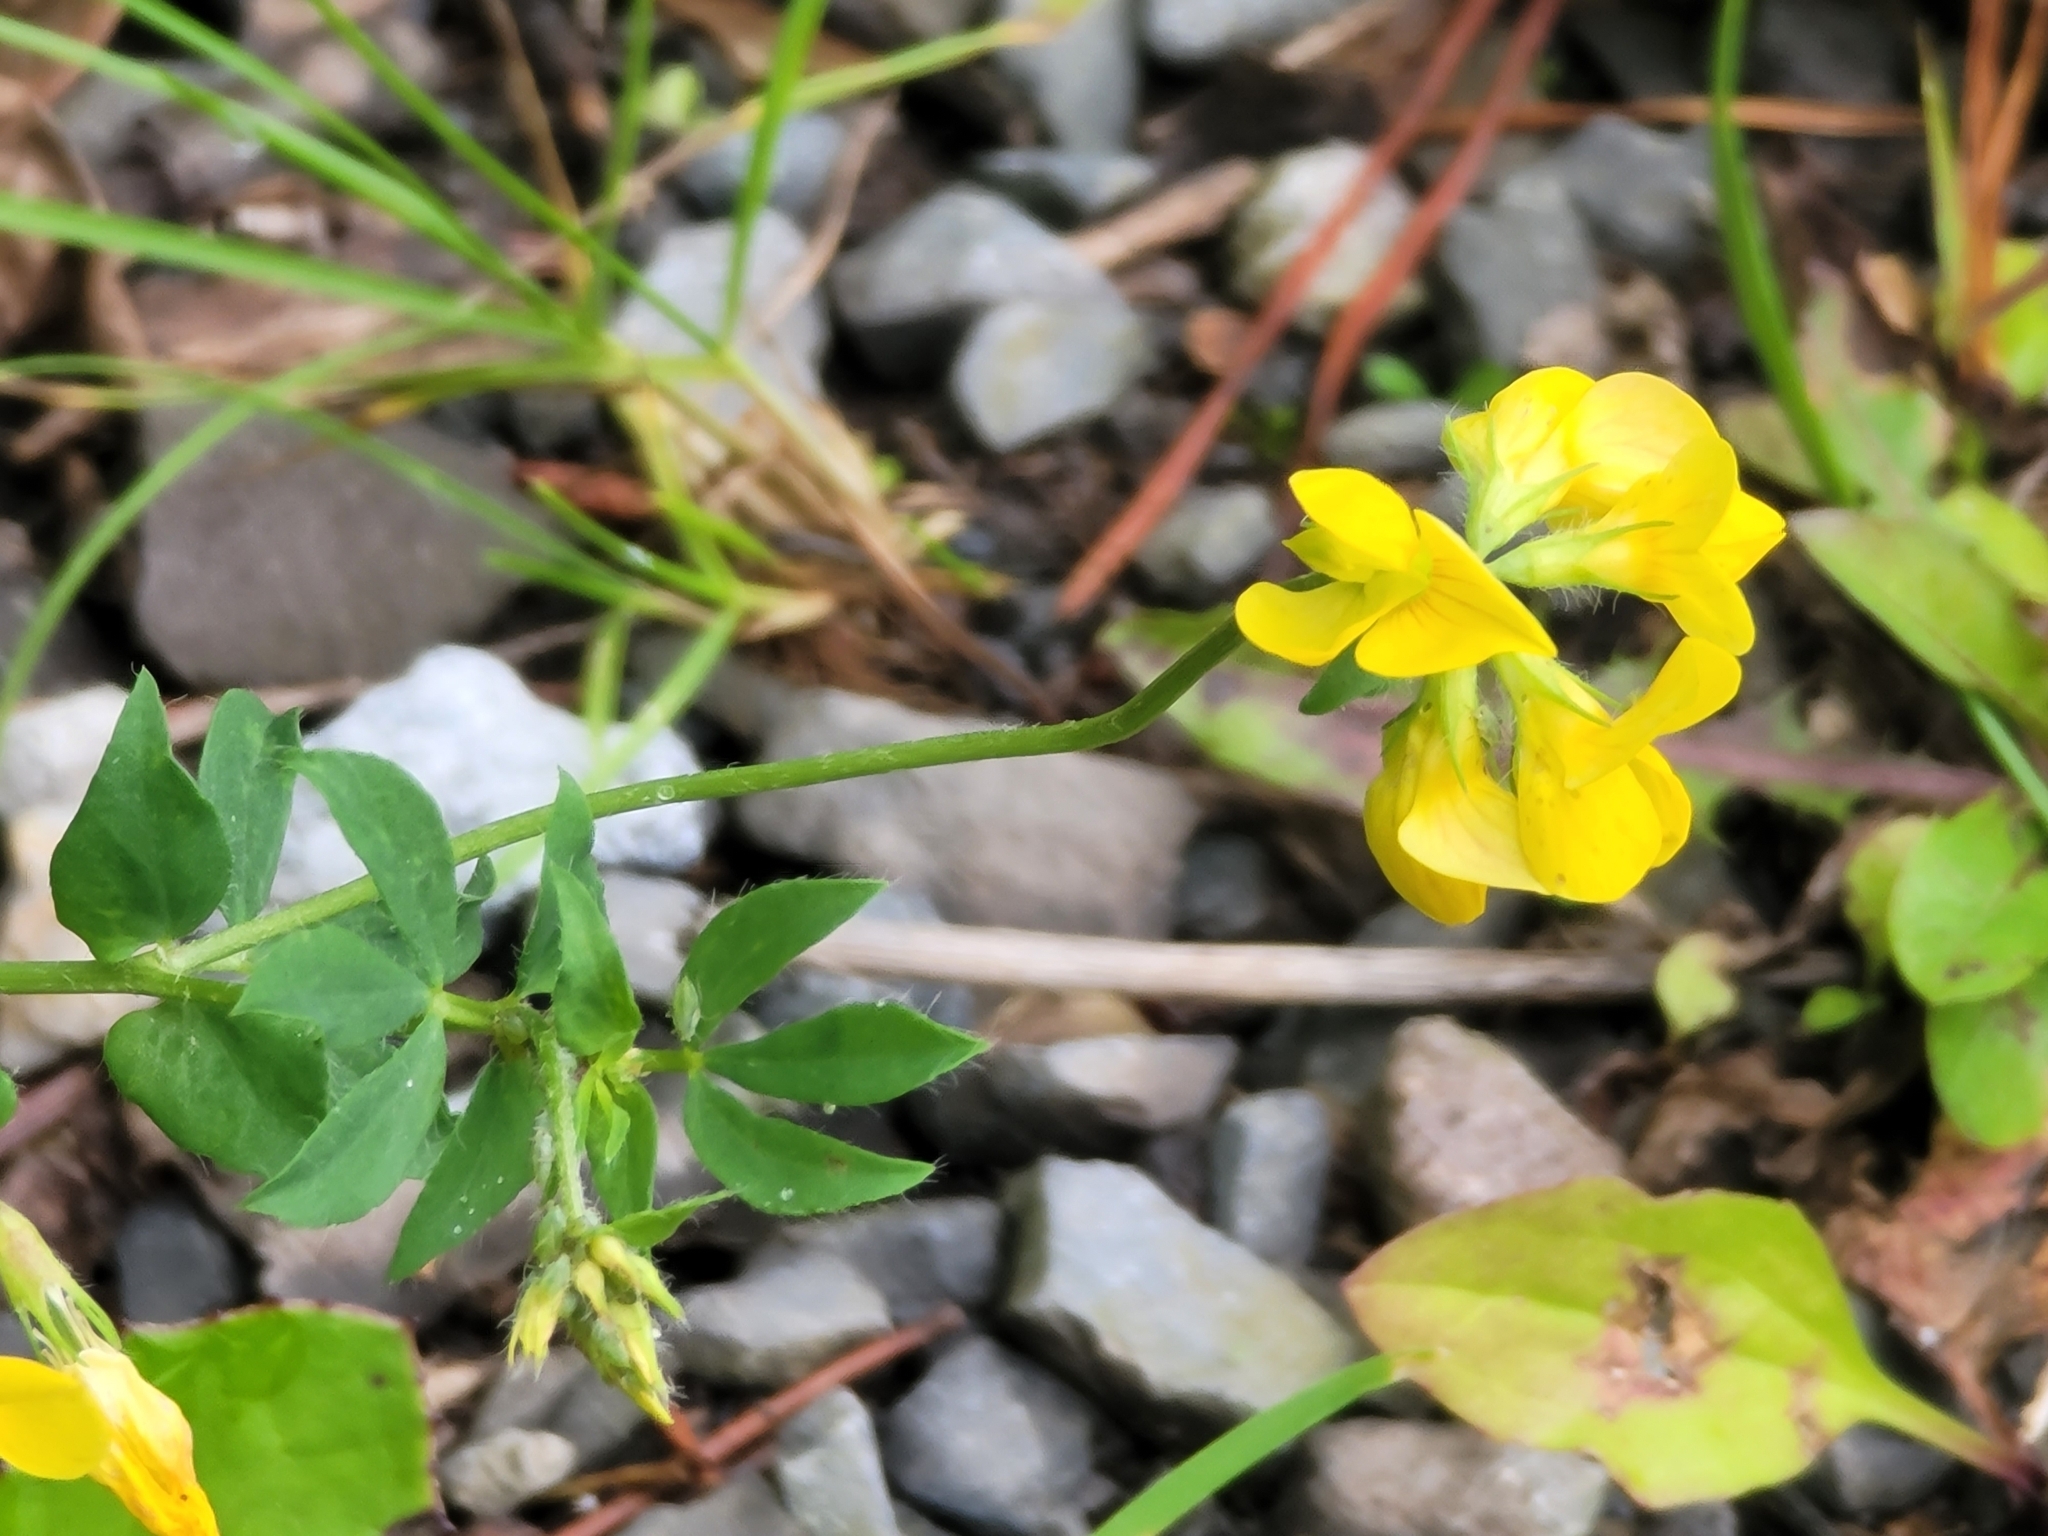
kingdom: Plantae
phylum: Tracheophyta
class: Magnoliopsida
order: Fabales
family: Fabaceae
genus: Lotus
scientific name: Lotus corniculatus
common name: Common bird's-foot-trefoil
